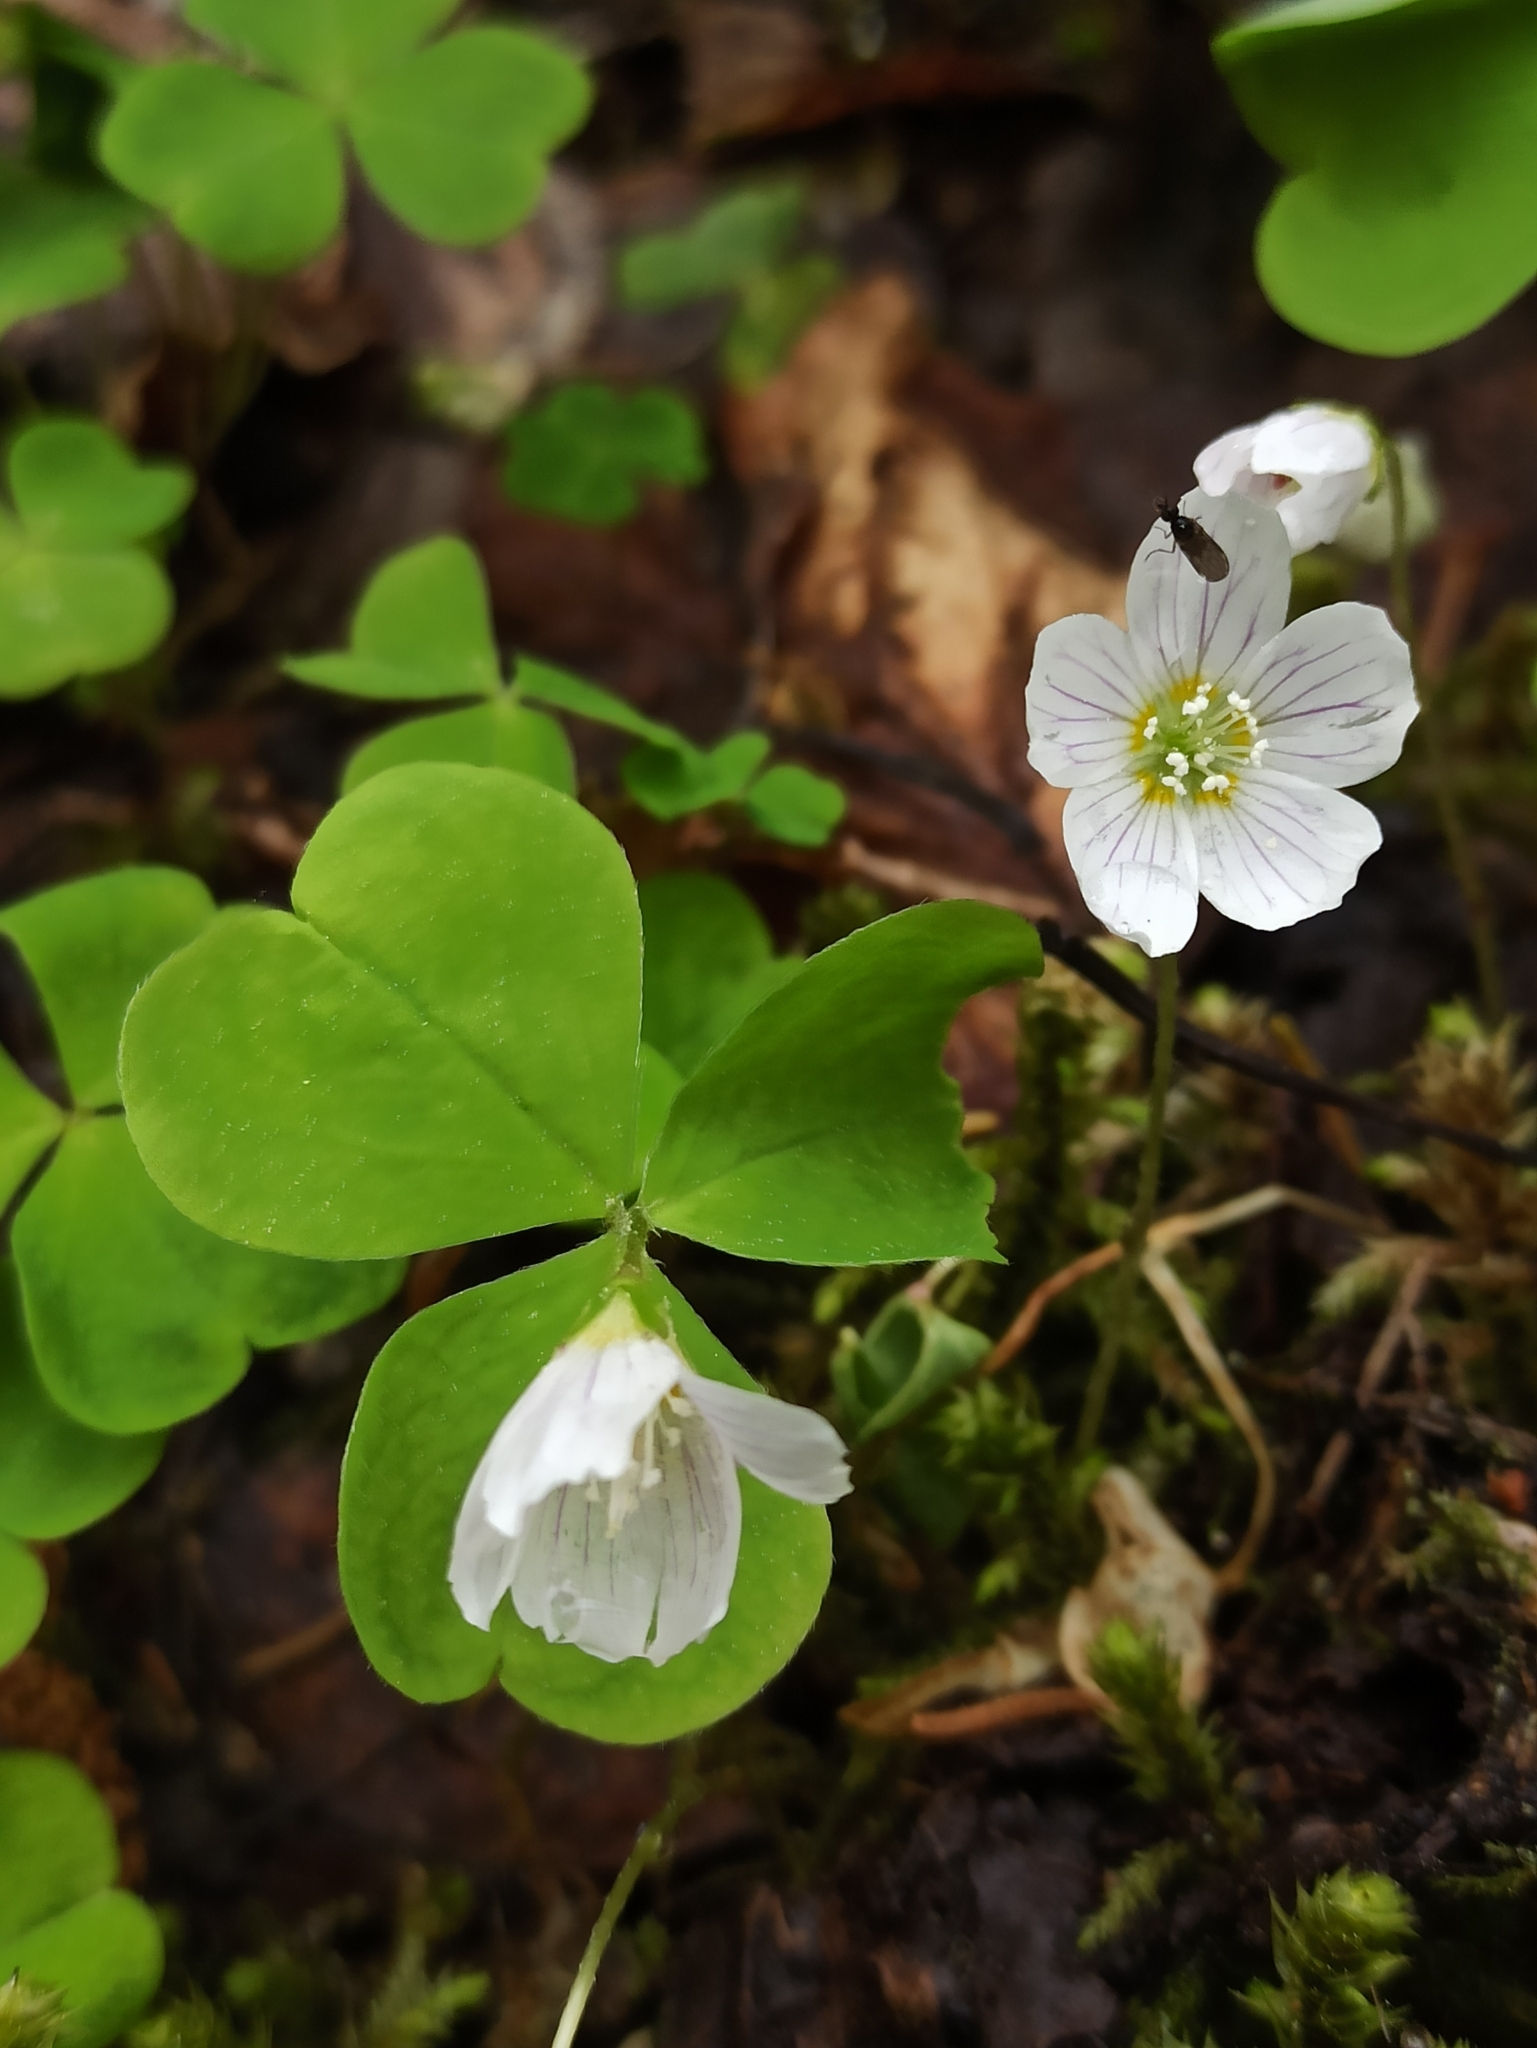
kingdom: Plantae
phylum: Tracheophyta
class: Magnoliopsida
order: Oxalidales
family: Oxalidaceae
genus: Oxalis
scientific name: Oxalis acetosella
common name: Wood-sorrel
